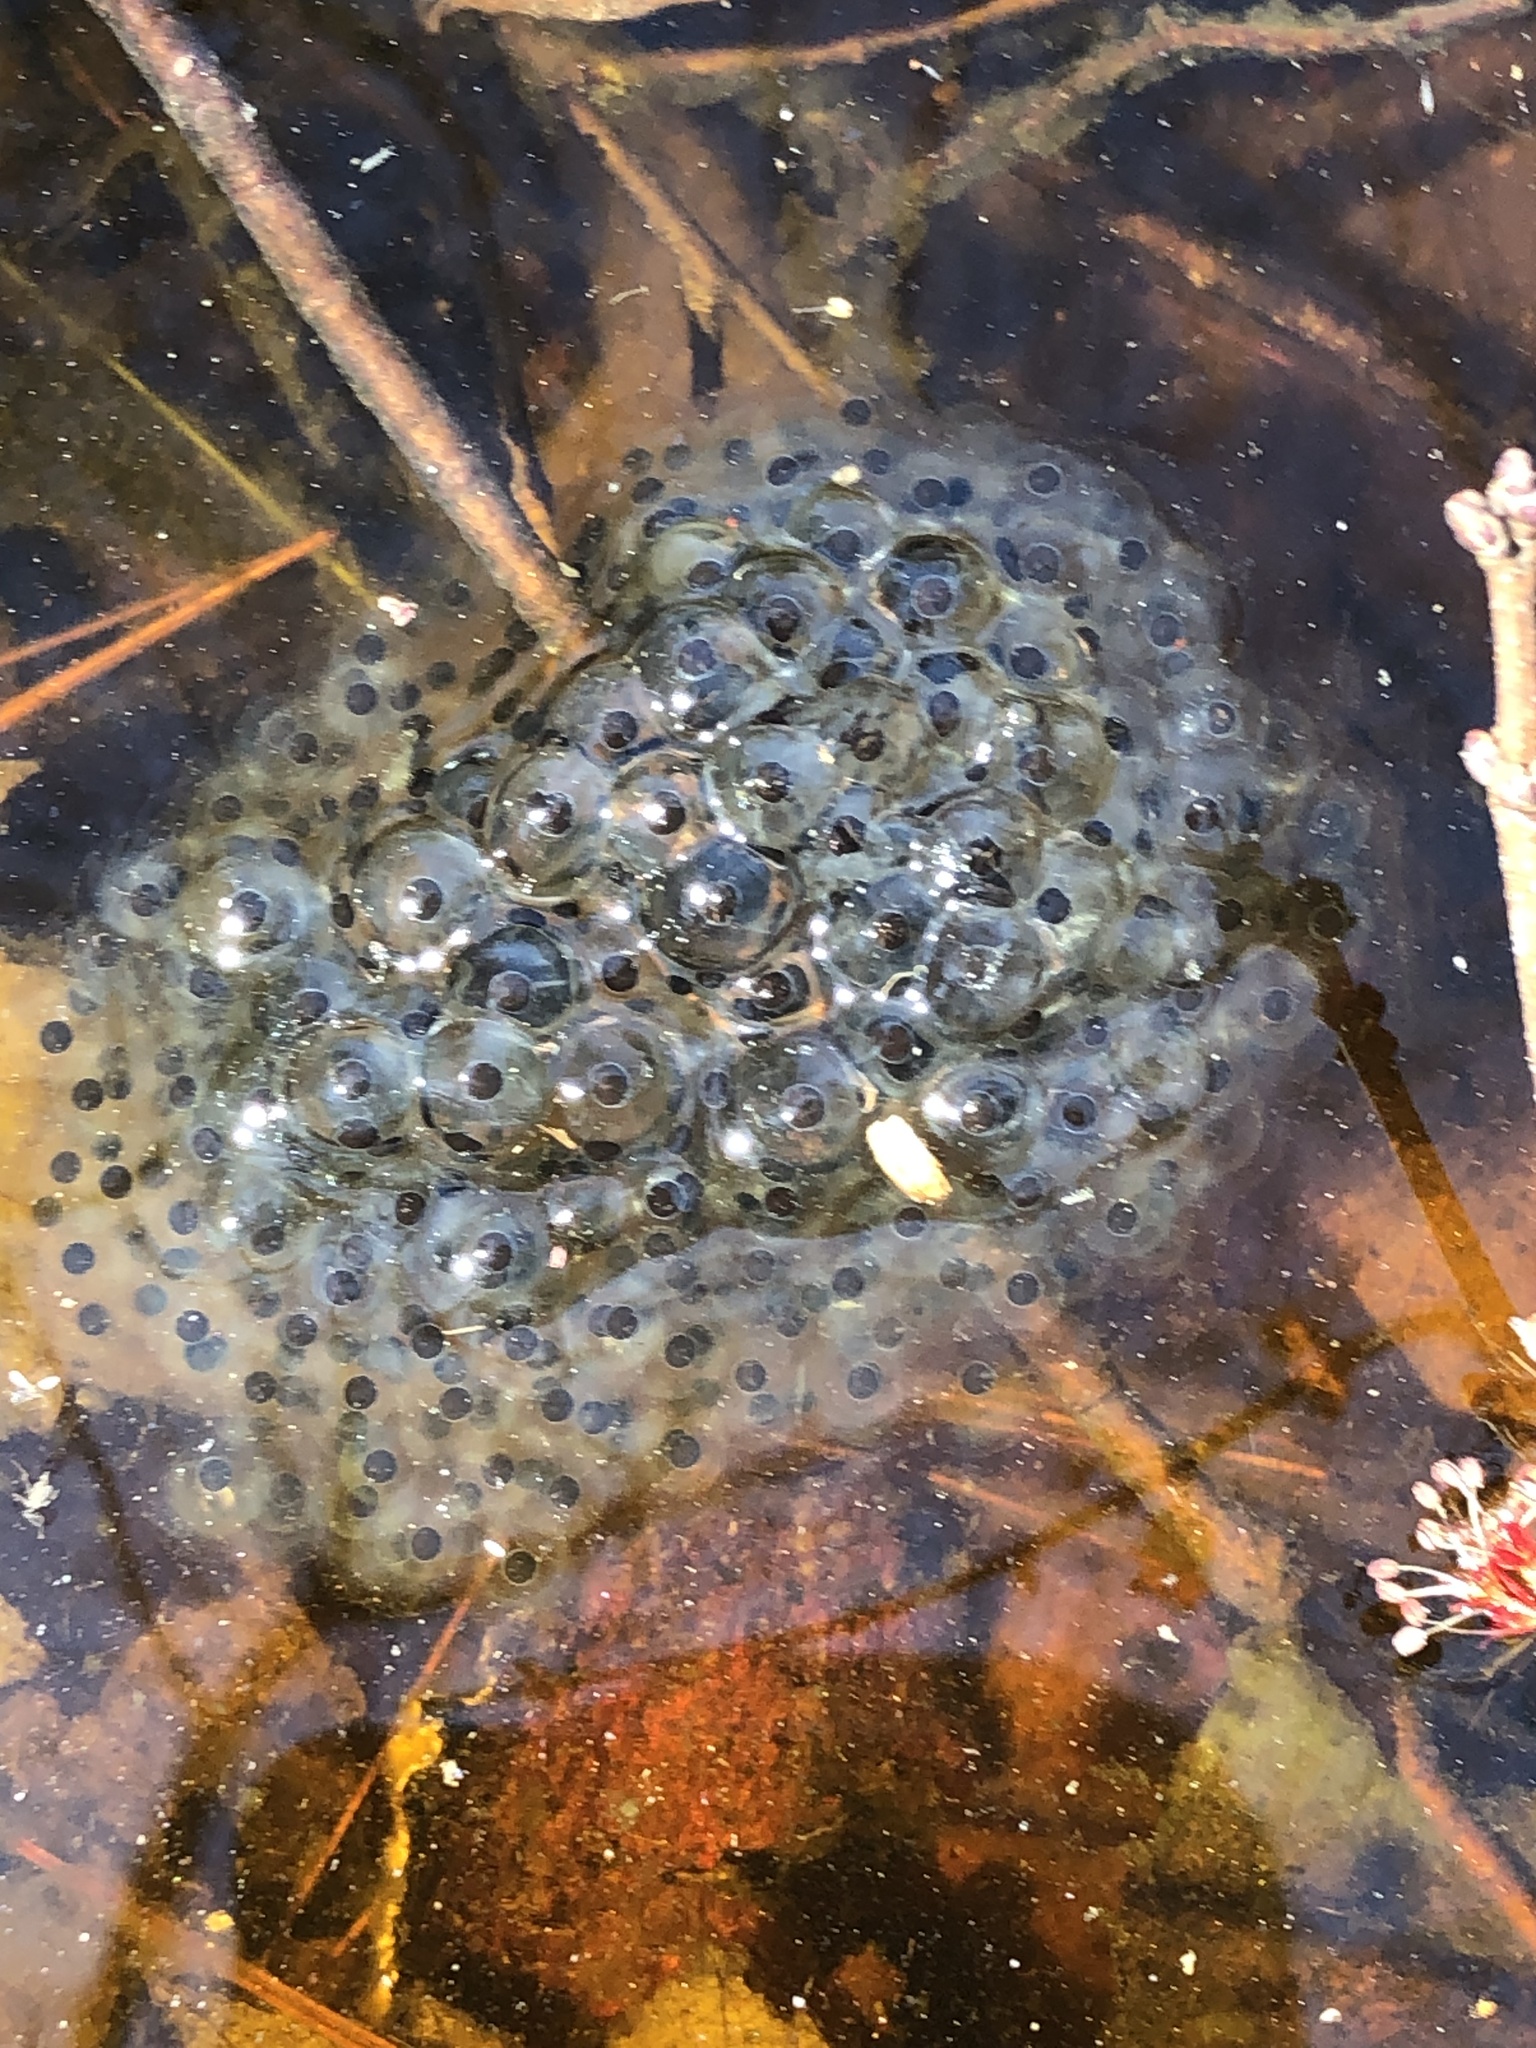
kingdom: Animalia
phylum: Chordata
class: Amphibia
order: Anura
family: Ranidae
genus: Lithobates
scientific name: Lithobates sylvaticus
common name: Wood frog
